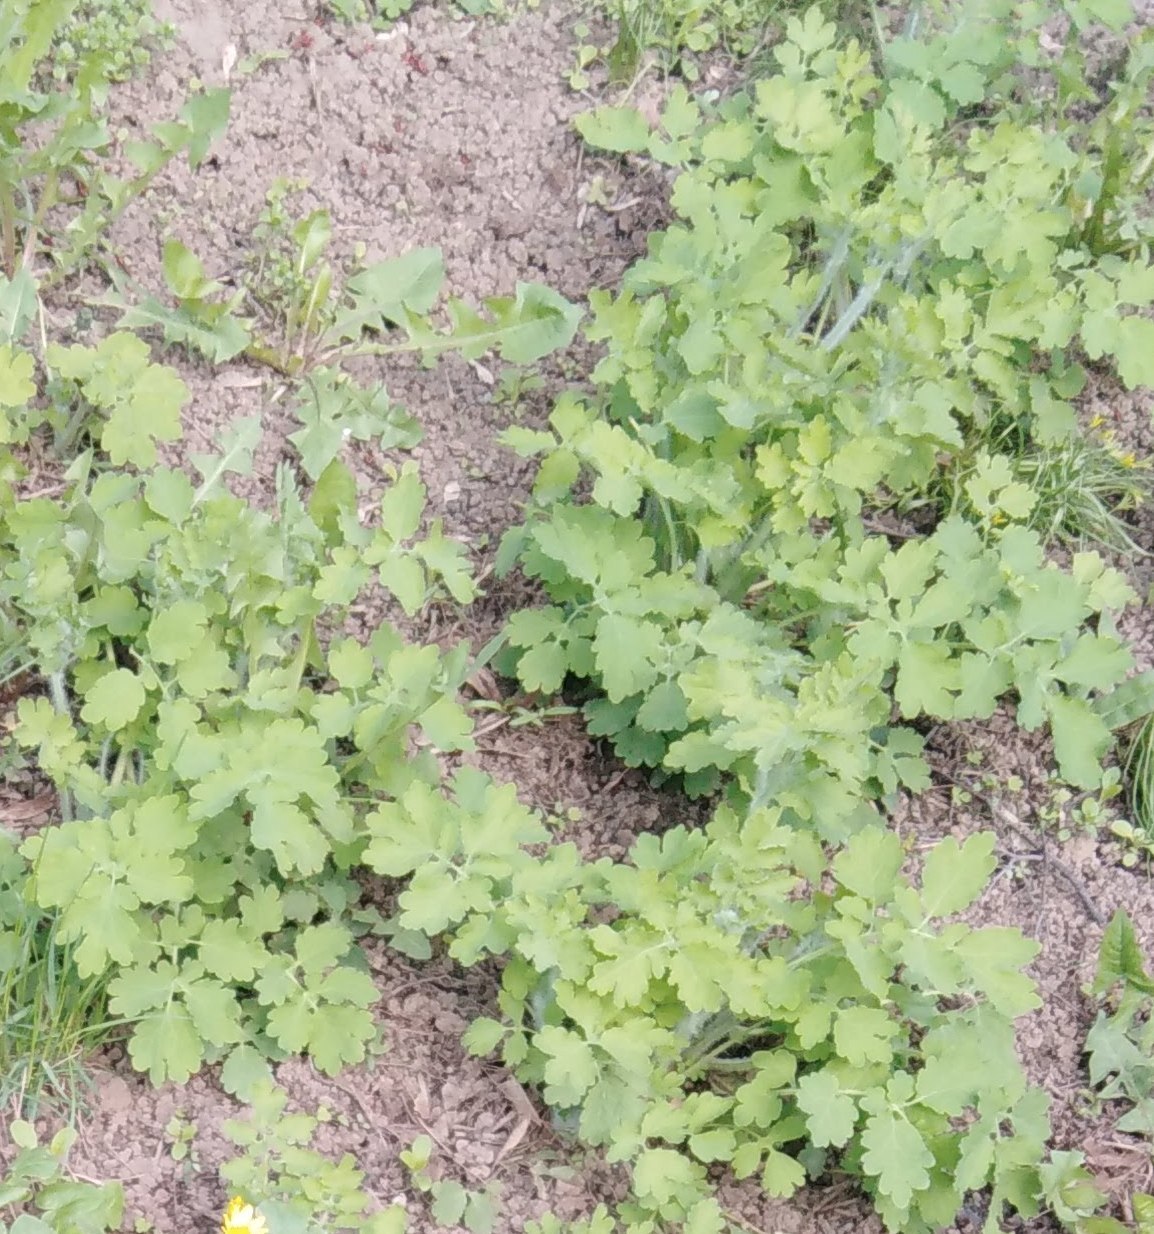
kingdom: Plantae
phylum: Tracheophyta
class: Magnoliopsida
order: Ranunculales
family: Papaveraceae
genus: Chelidonium
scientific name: Chelidonium majus
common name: Greater celandine
